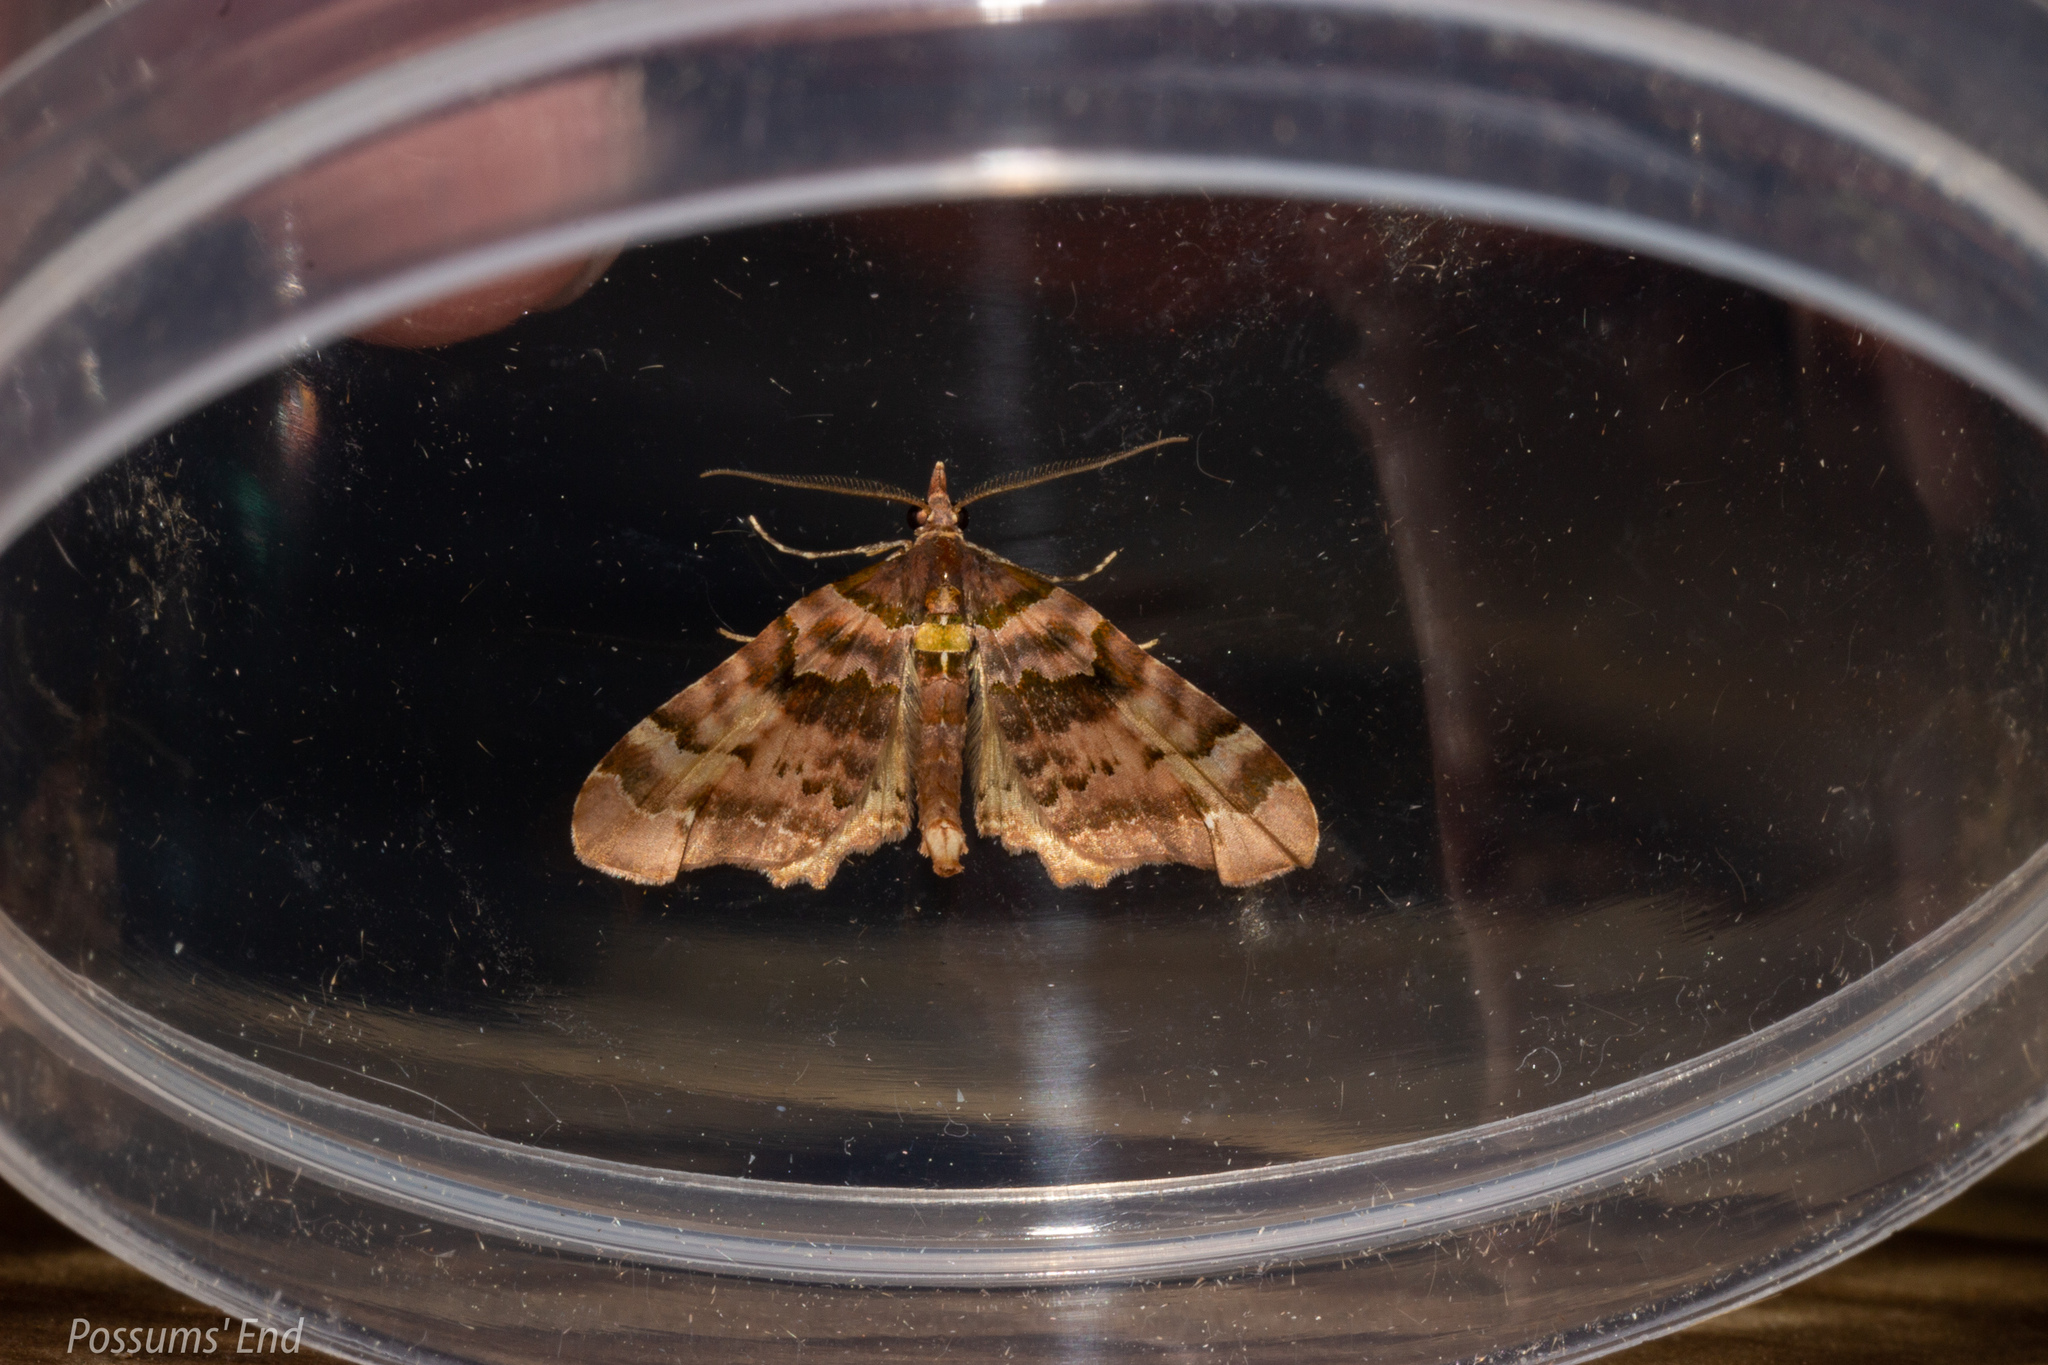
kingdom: Animalia
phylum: Arthropoda
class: Insecta
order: Lepidoptera
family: Geometridae
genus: Elvia
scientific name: Elvia glaucata
